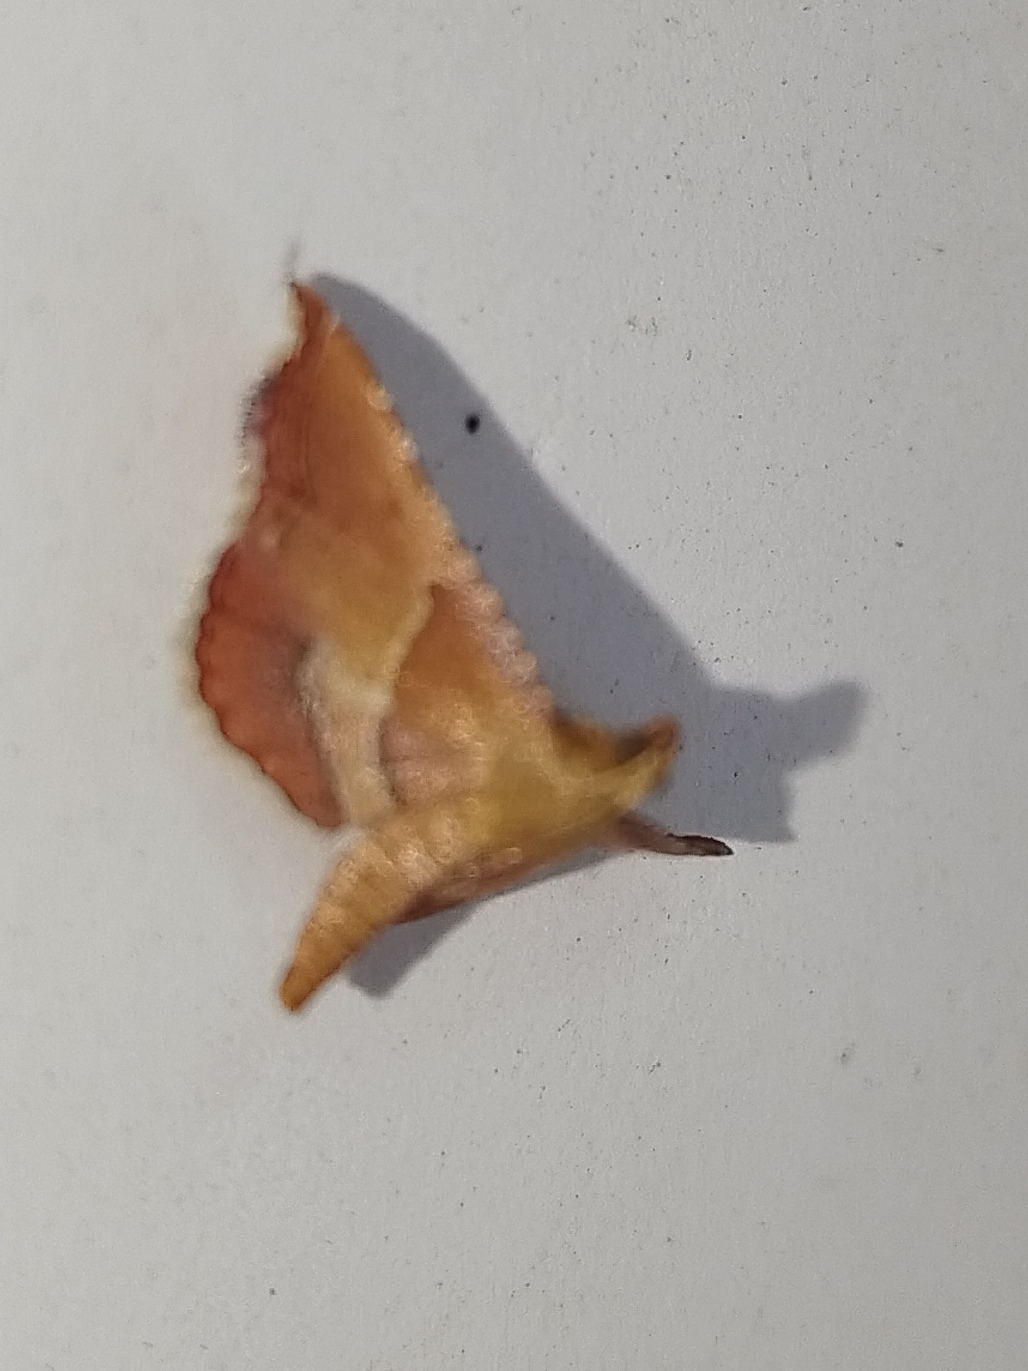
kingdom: Animalia
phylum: Arthropoda
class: Insecta
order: Lepidoptera
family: Pyralidae
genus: Endotricha
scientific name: Endotricha flammealis
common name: Rosy tabby
